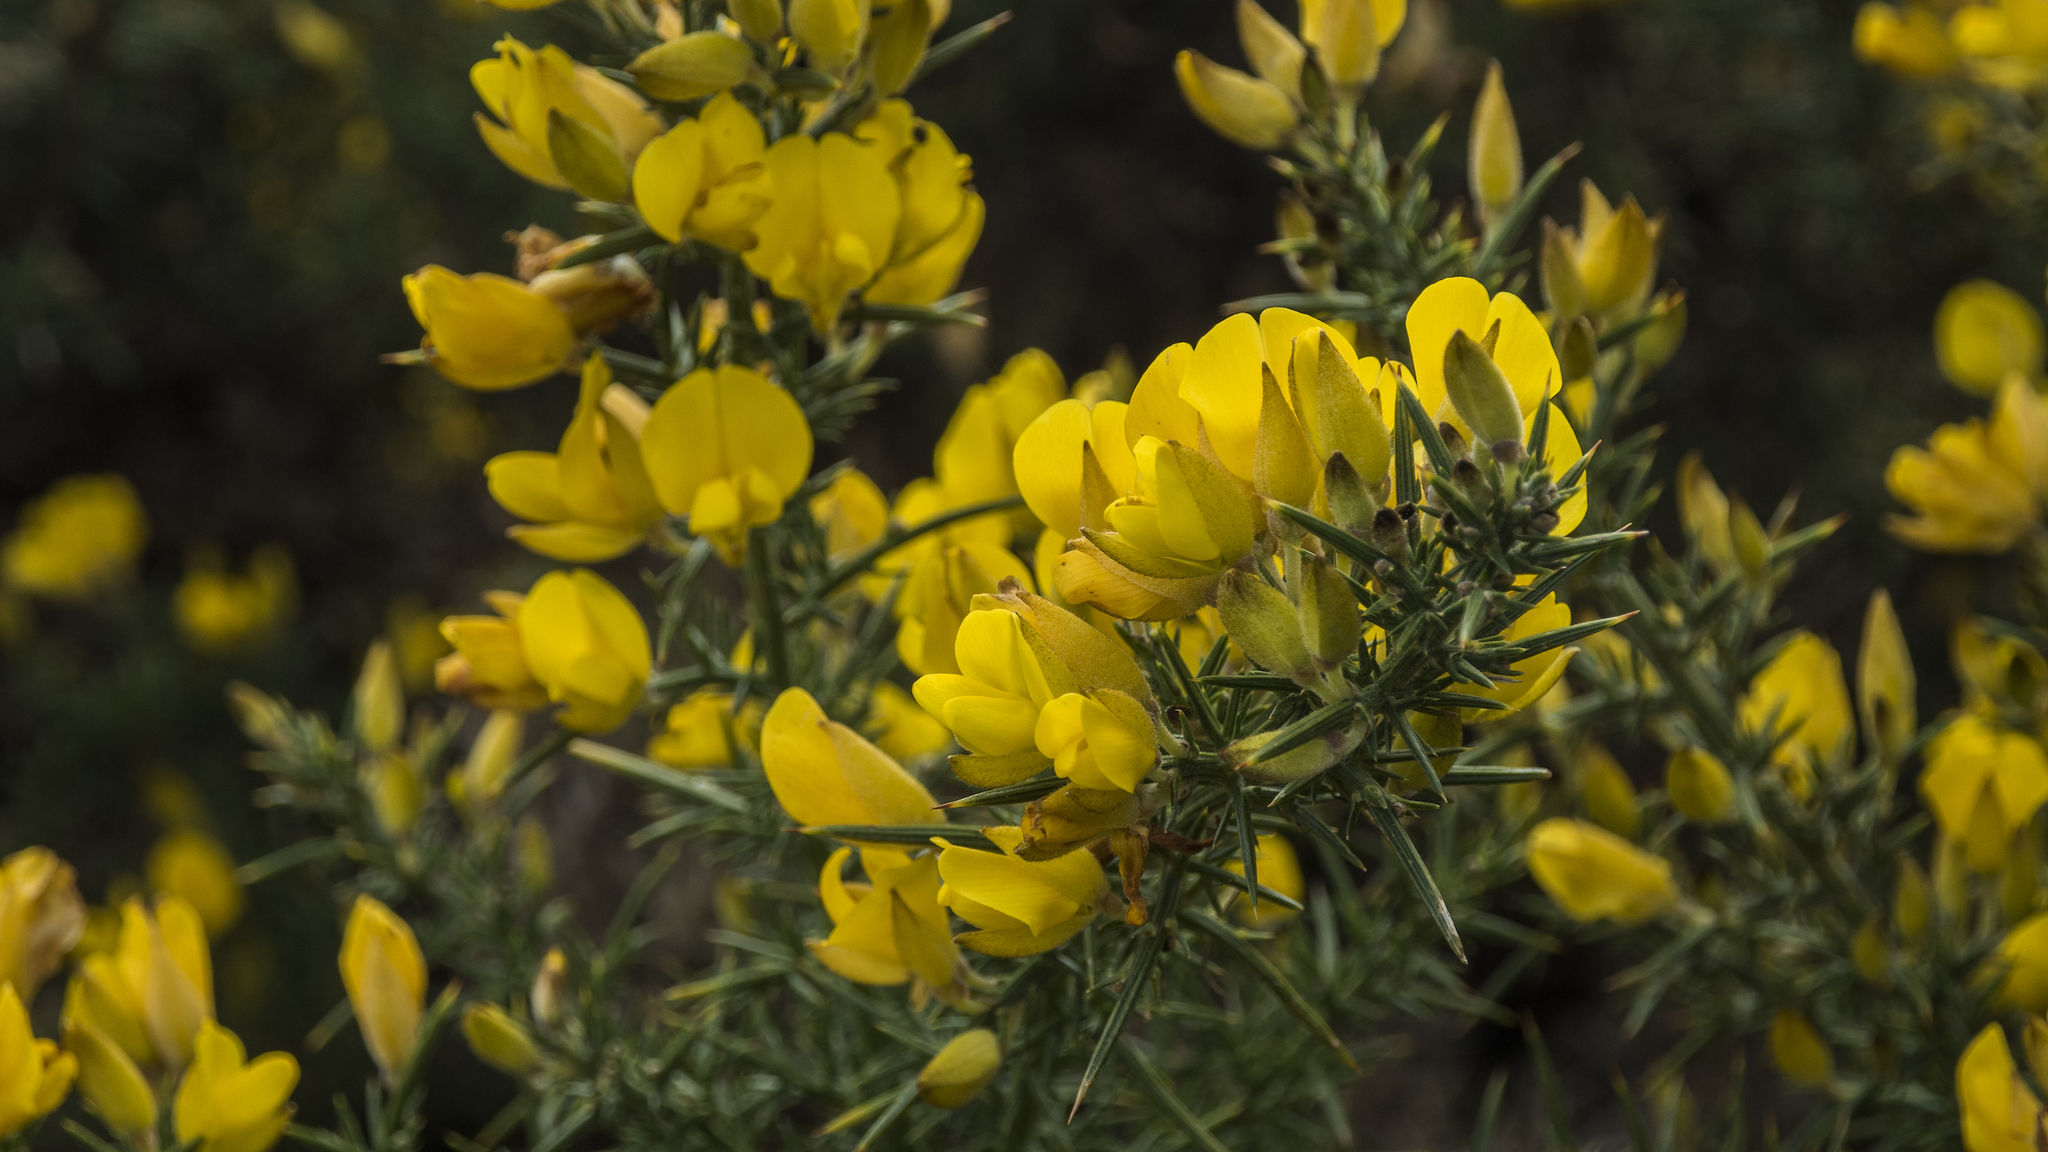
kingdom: Plantae
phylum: Tracheophyta
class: Magnoliopsida
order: Fabales
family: Fabaceae
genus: Ulex
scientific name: Ulex europaeus
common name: Common gorse
